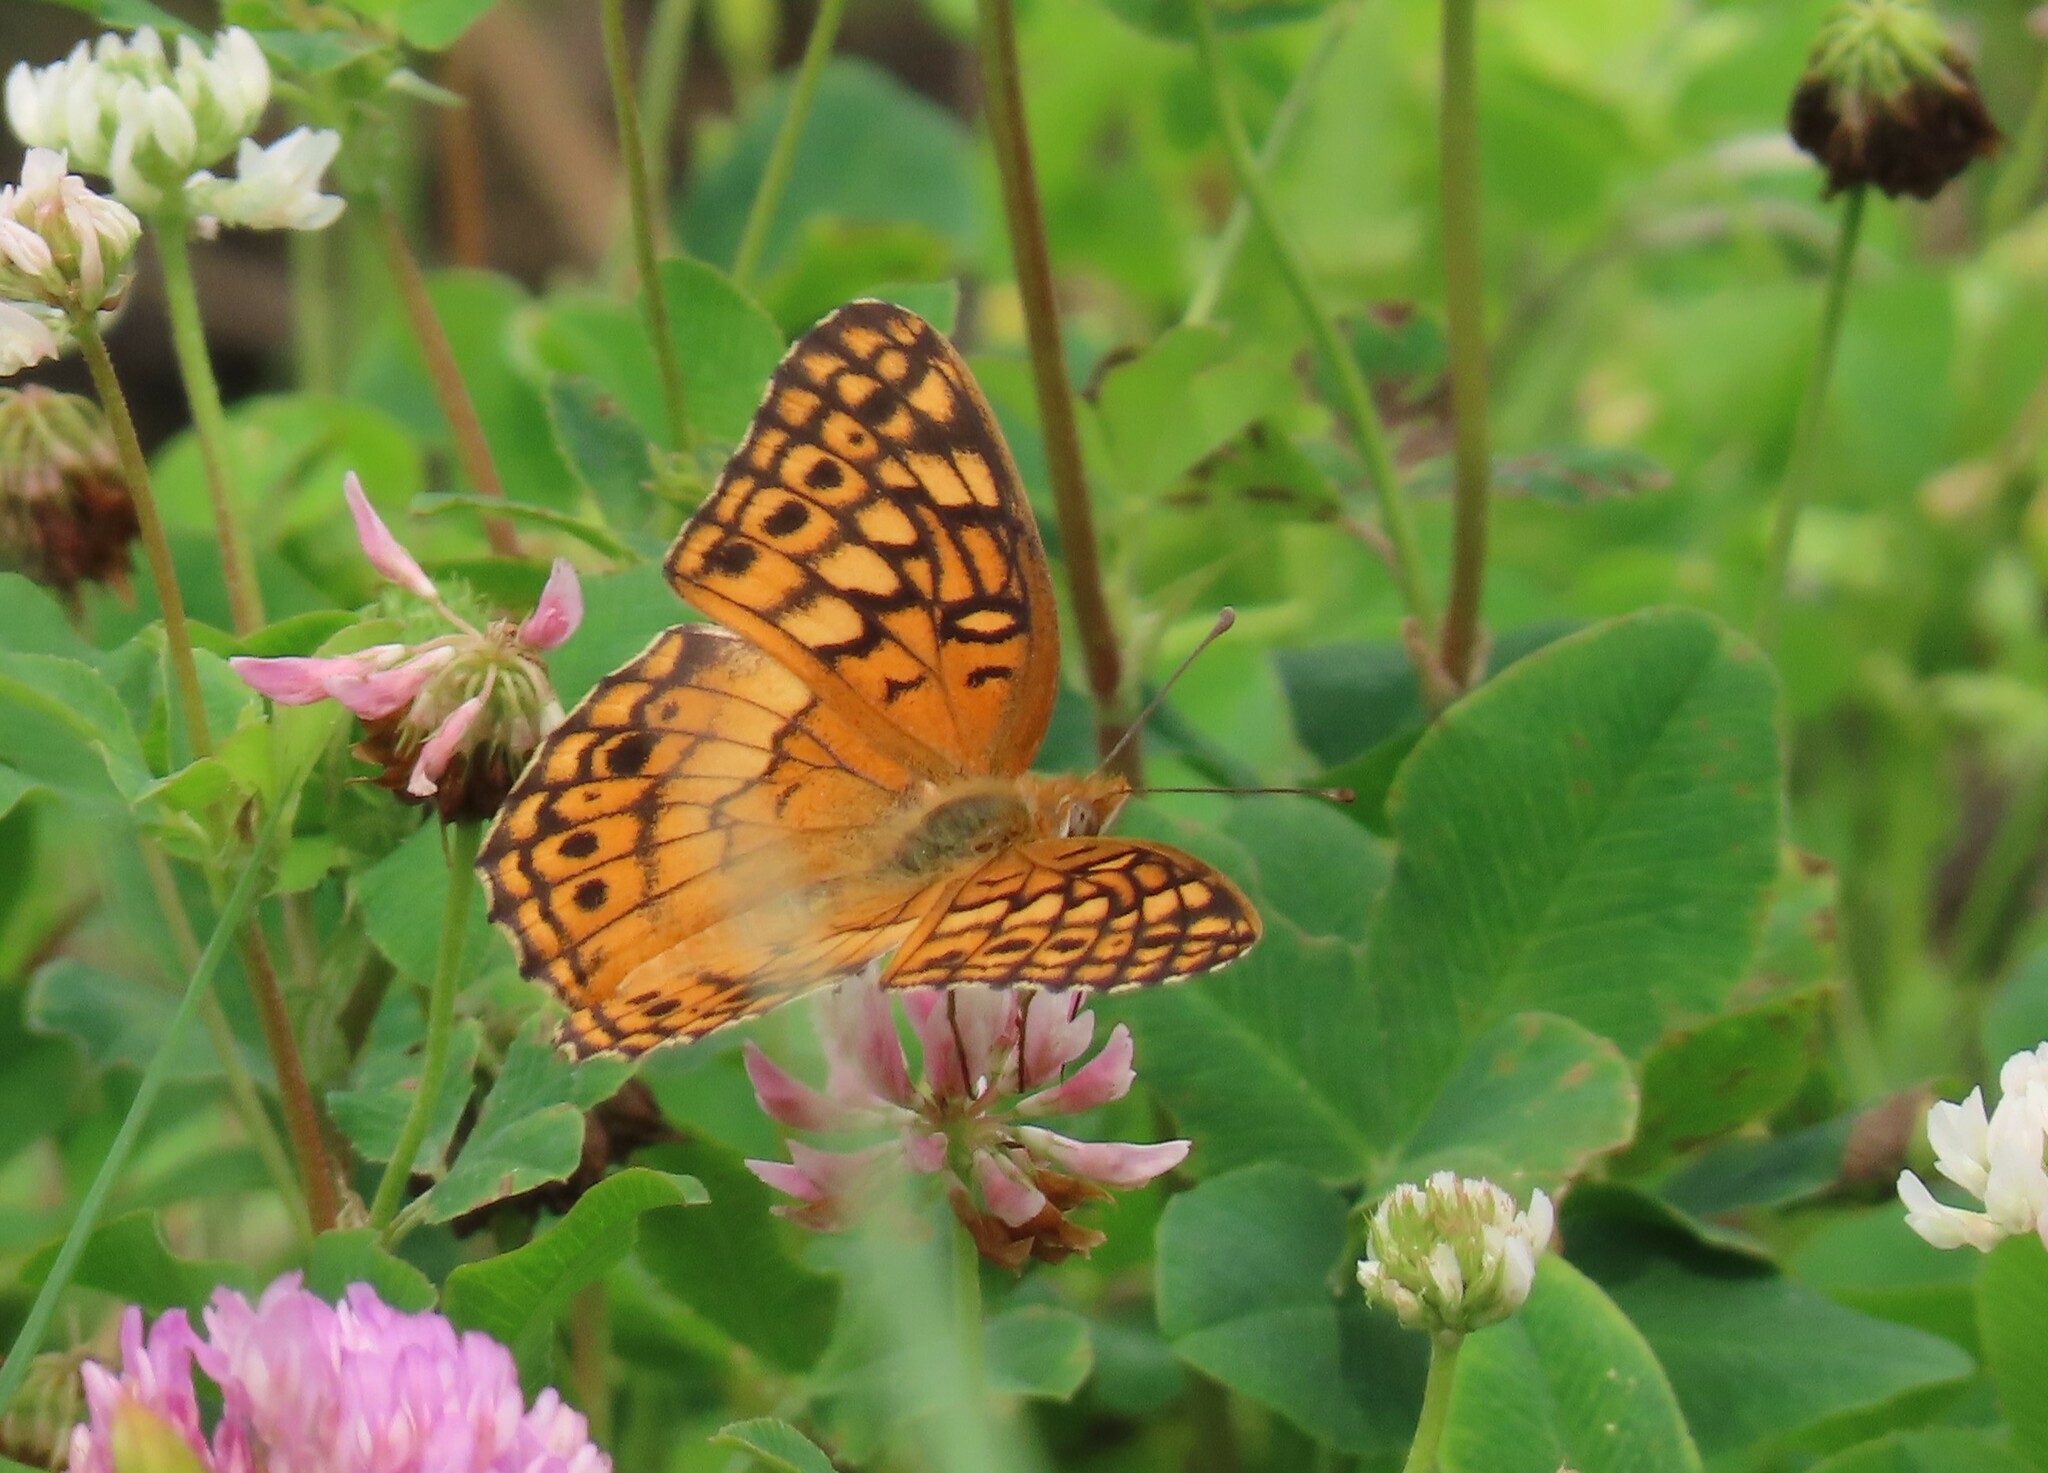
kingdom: Animalia
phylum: Arthropoda
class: Insecta
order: Lepidoptera
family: Nymphalidae
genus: Euptoieta
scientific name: Euptoieta claudia
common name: Variegated fritillary
